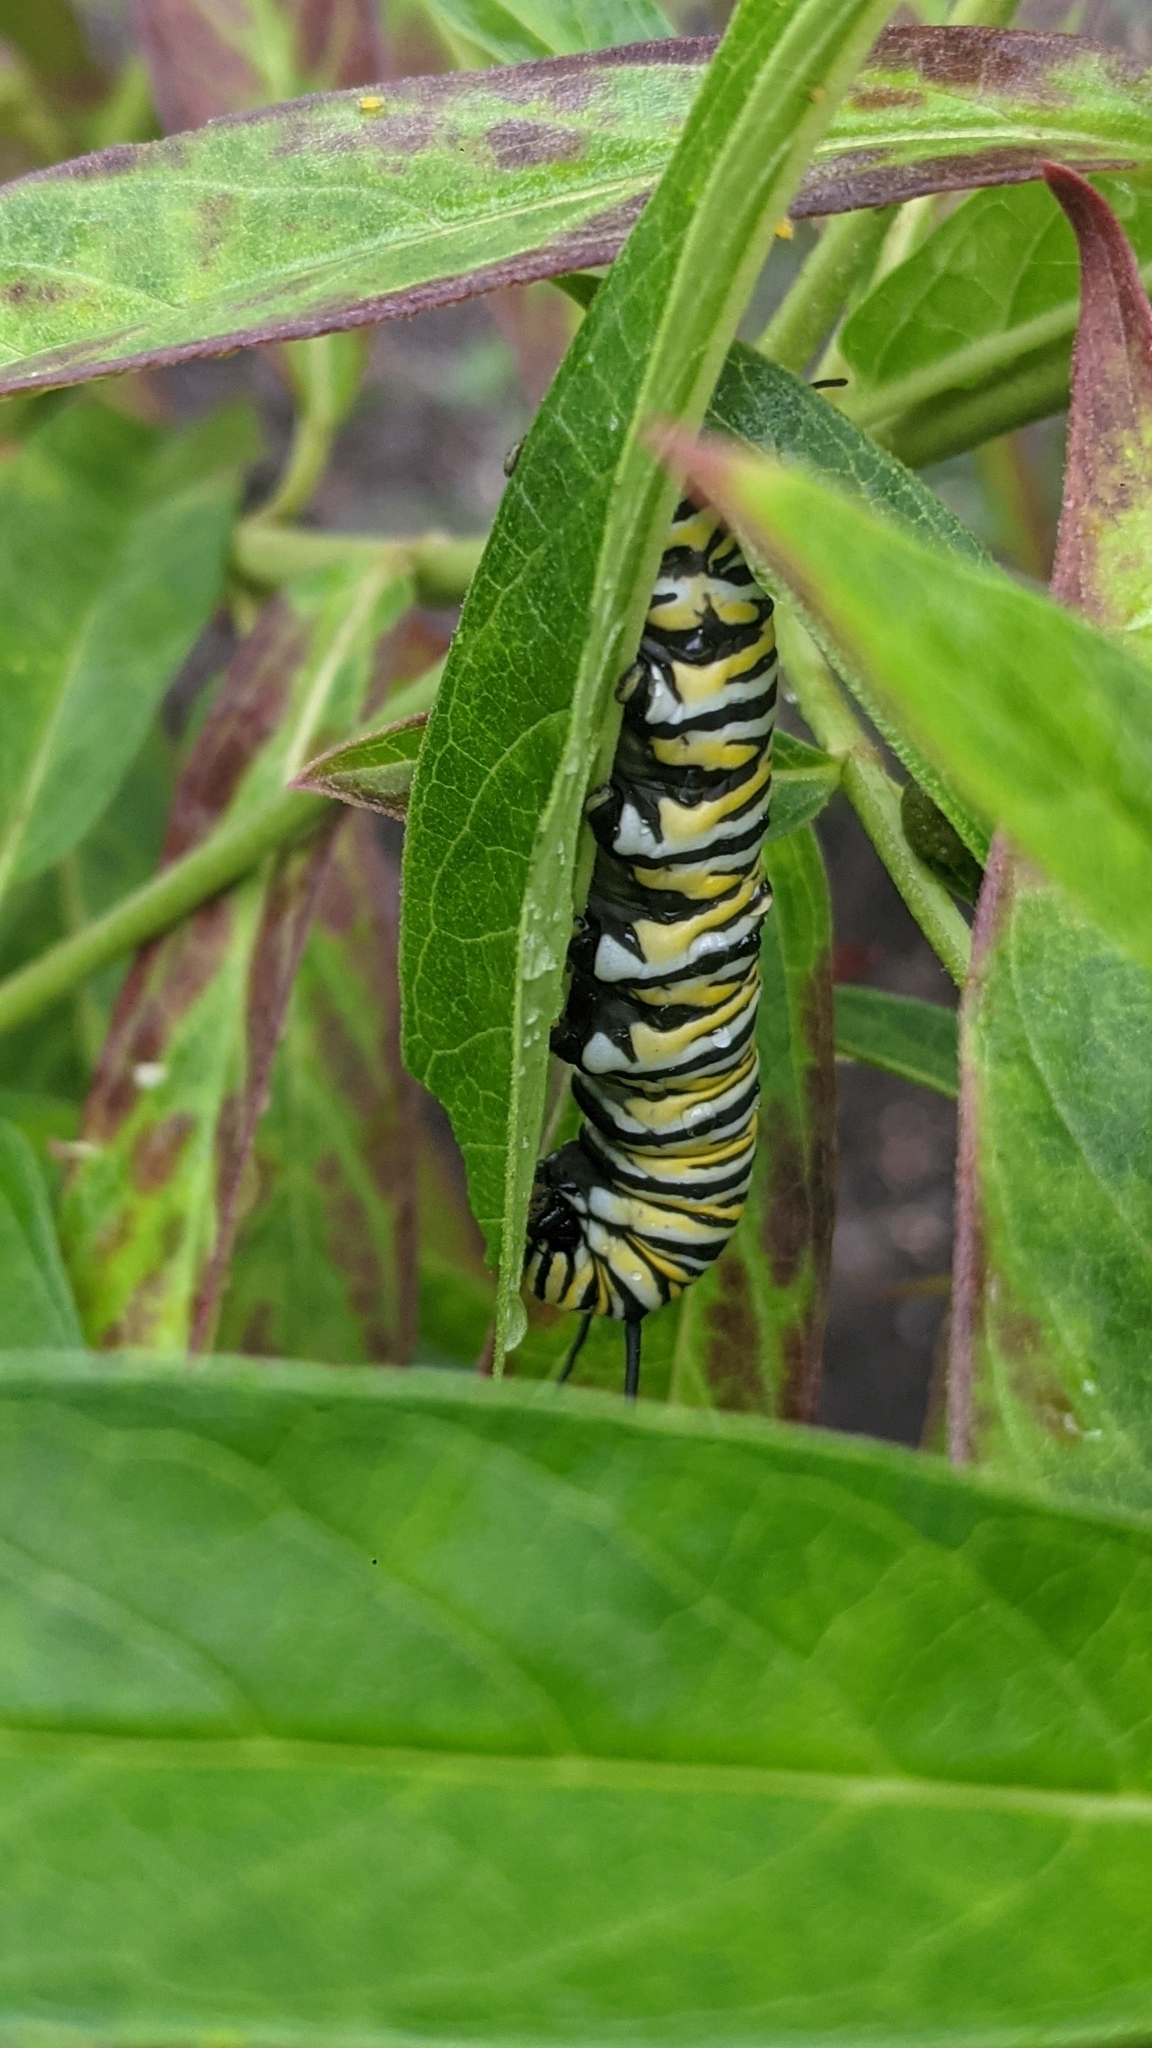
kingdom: Animalia
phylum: Arthropoda
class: Insecta
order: Lepidoptera
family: Nymphalidae
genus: Danaus
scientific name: Danaus plexippus
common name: Monarch
